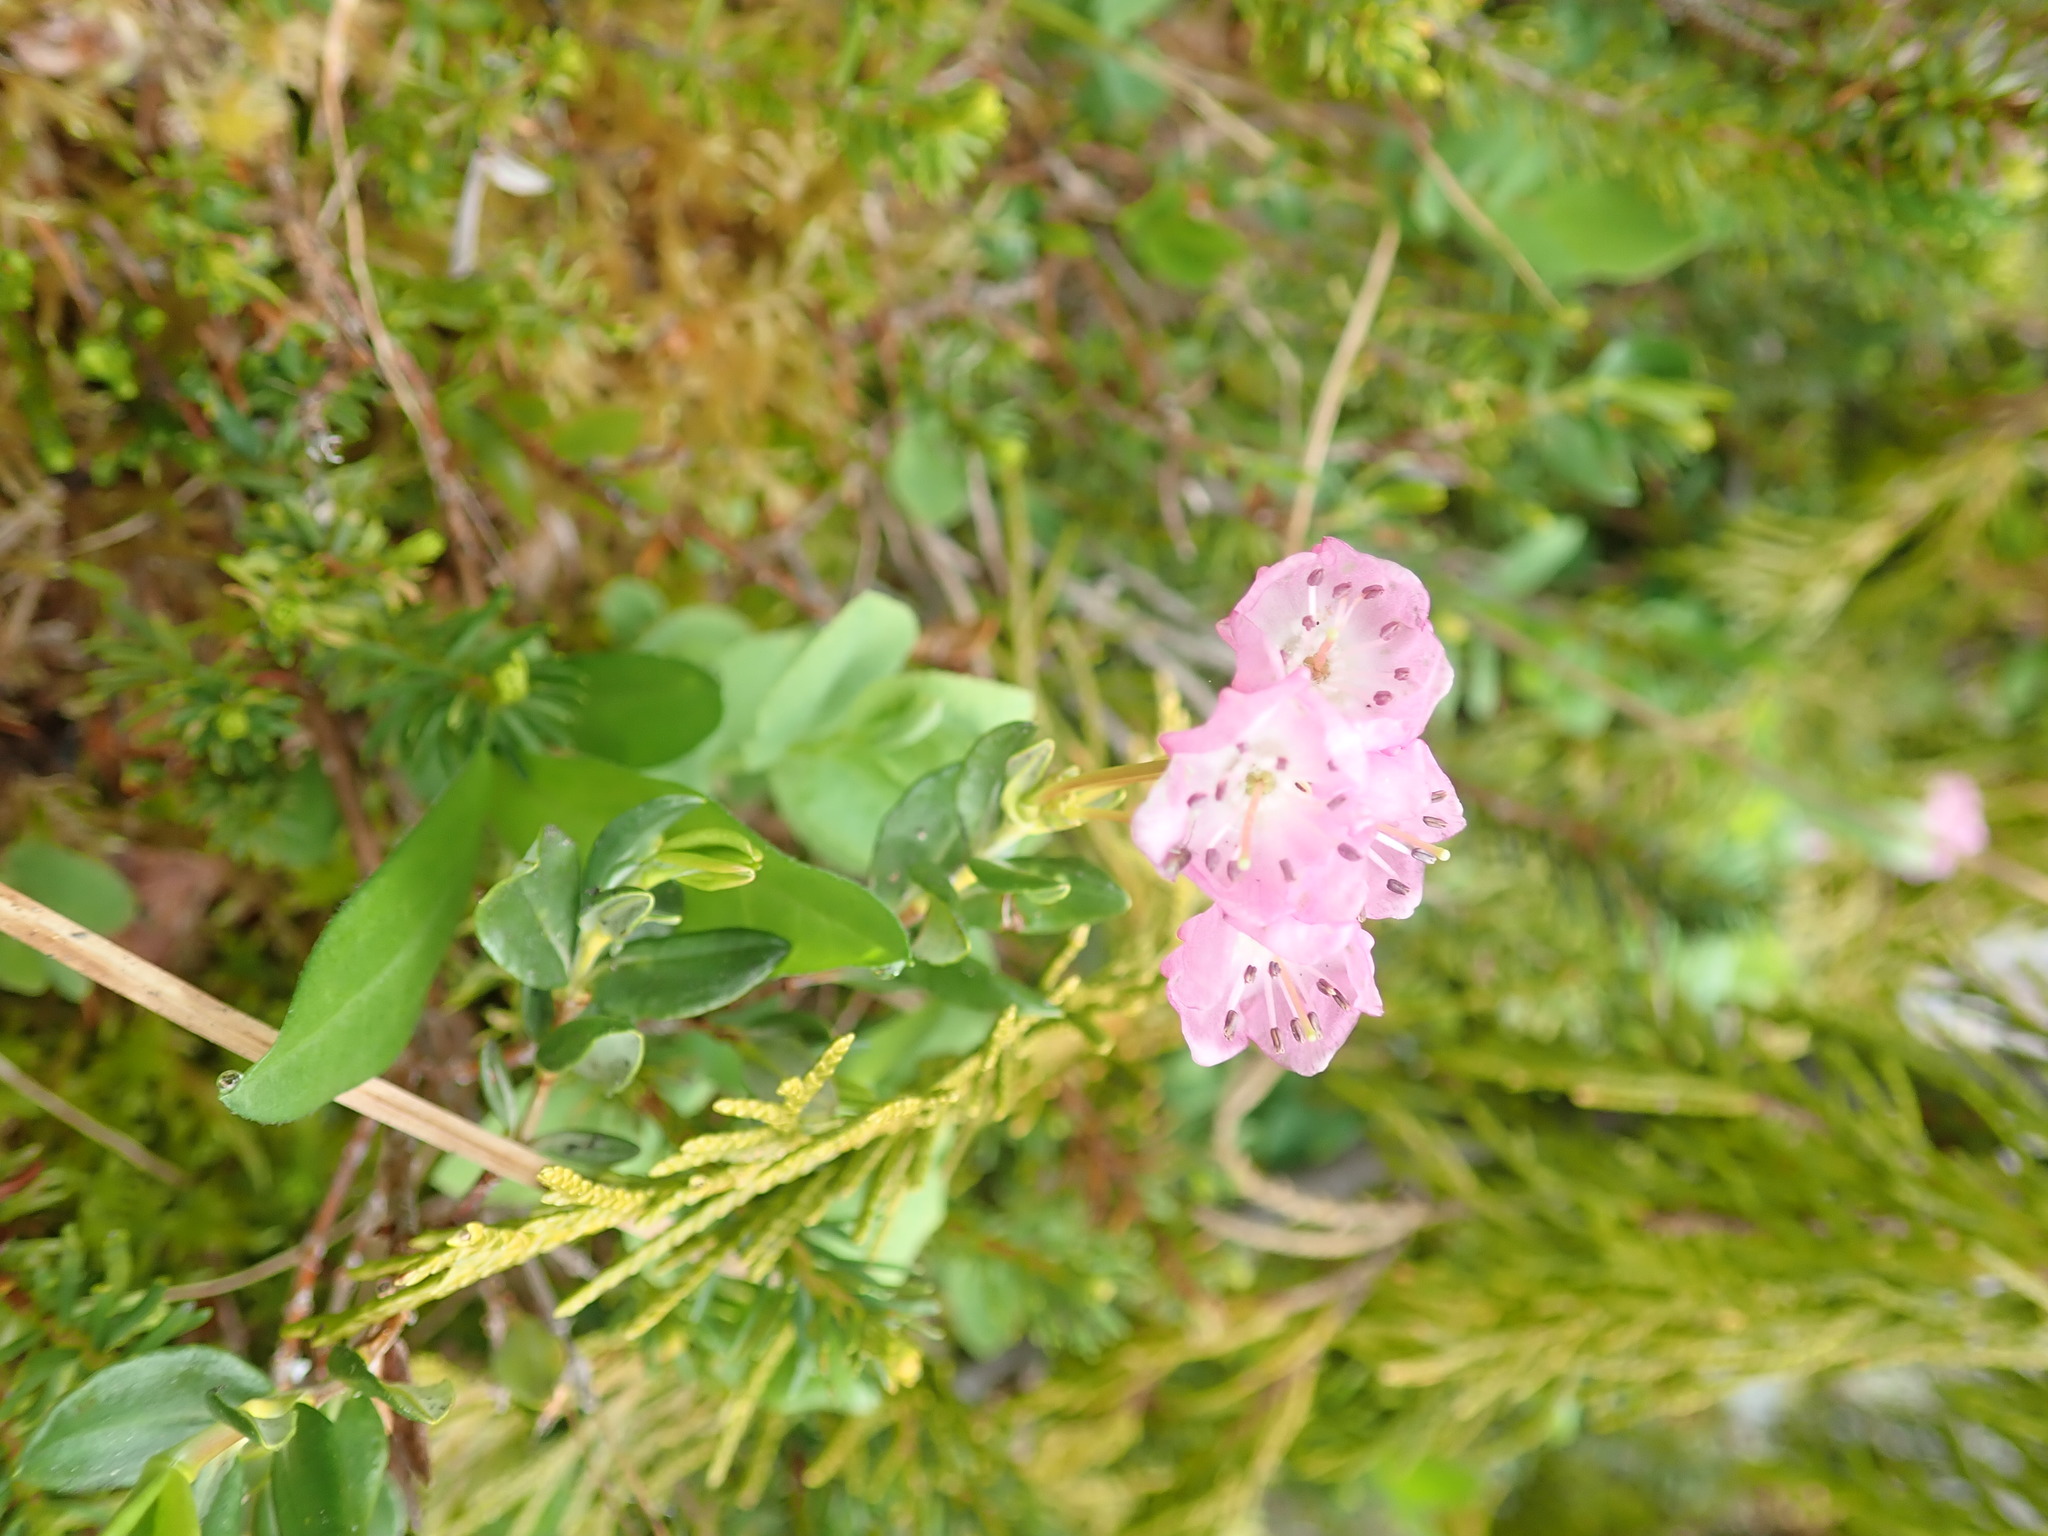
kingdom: Plantae
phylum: Tracheophyta
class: Magnoliopsida
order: Ericales
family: Ericaceae
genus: Kalmia
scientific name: Kalmia microphylla
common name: Alpine bog laurel
